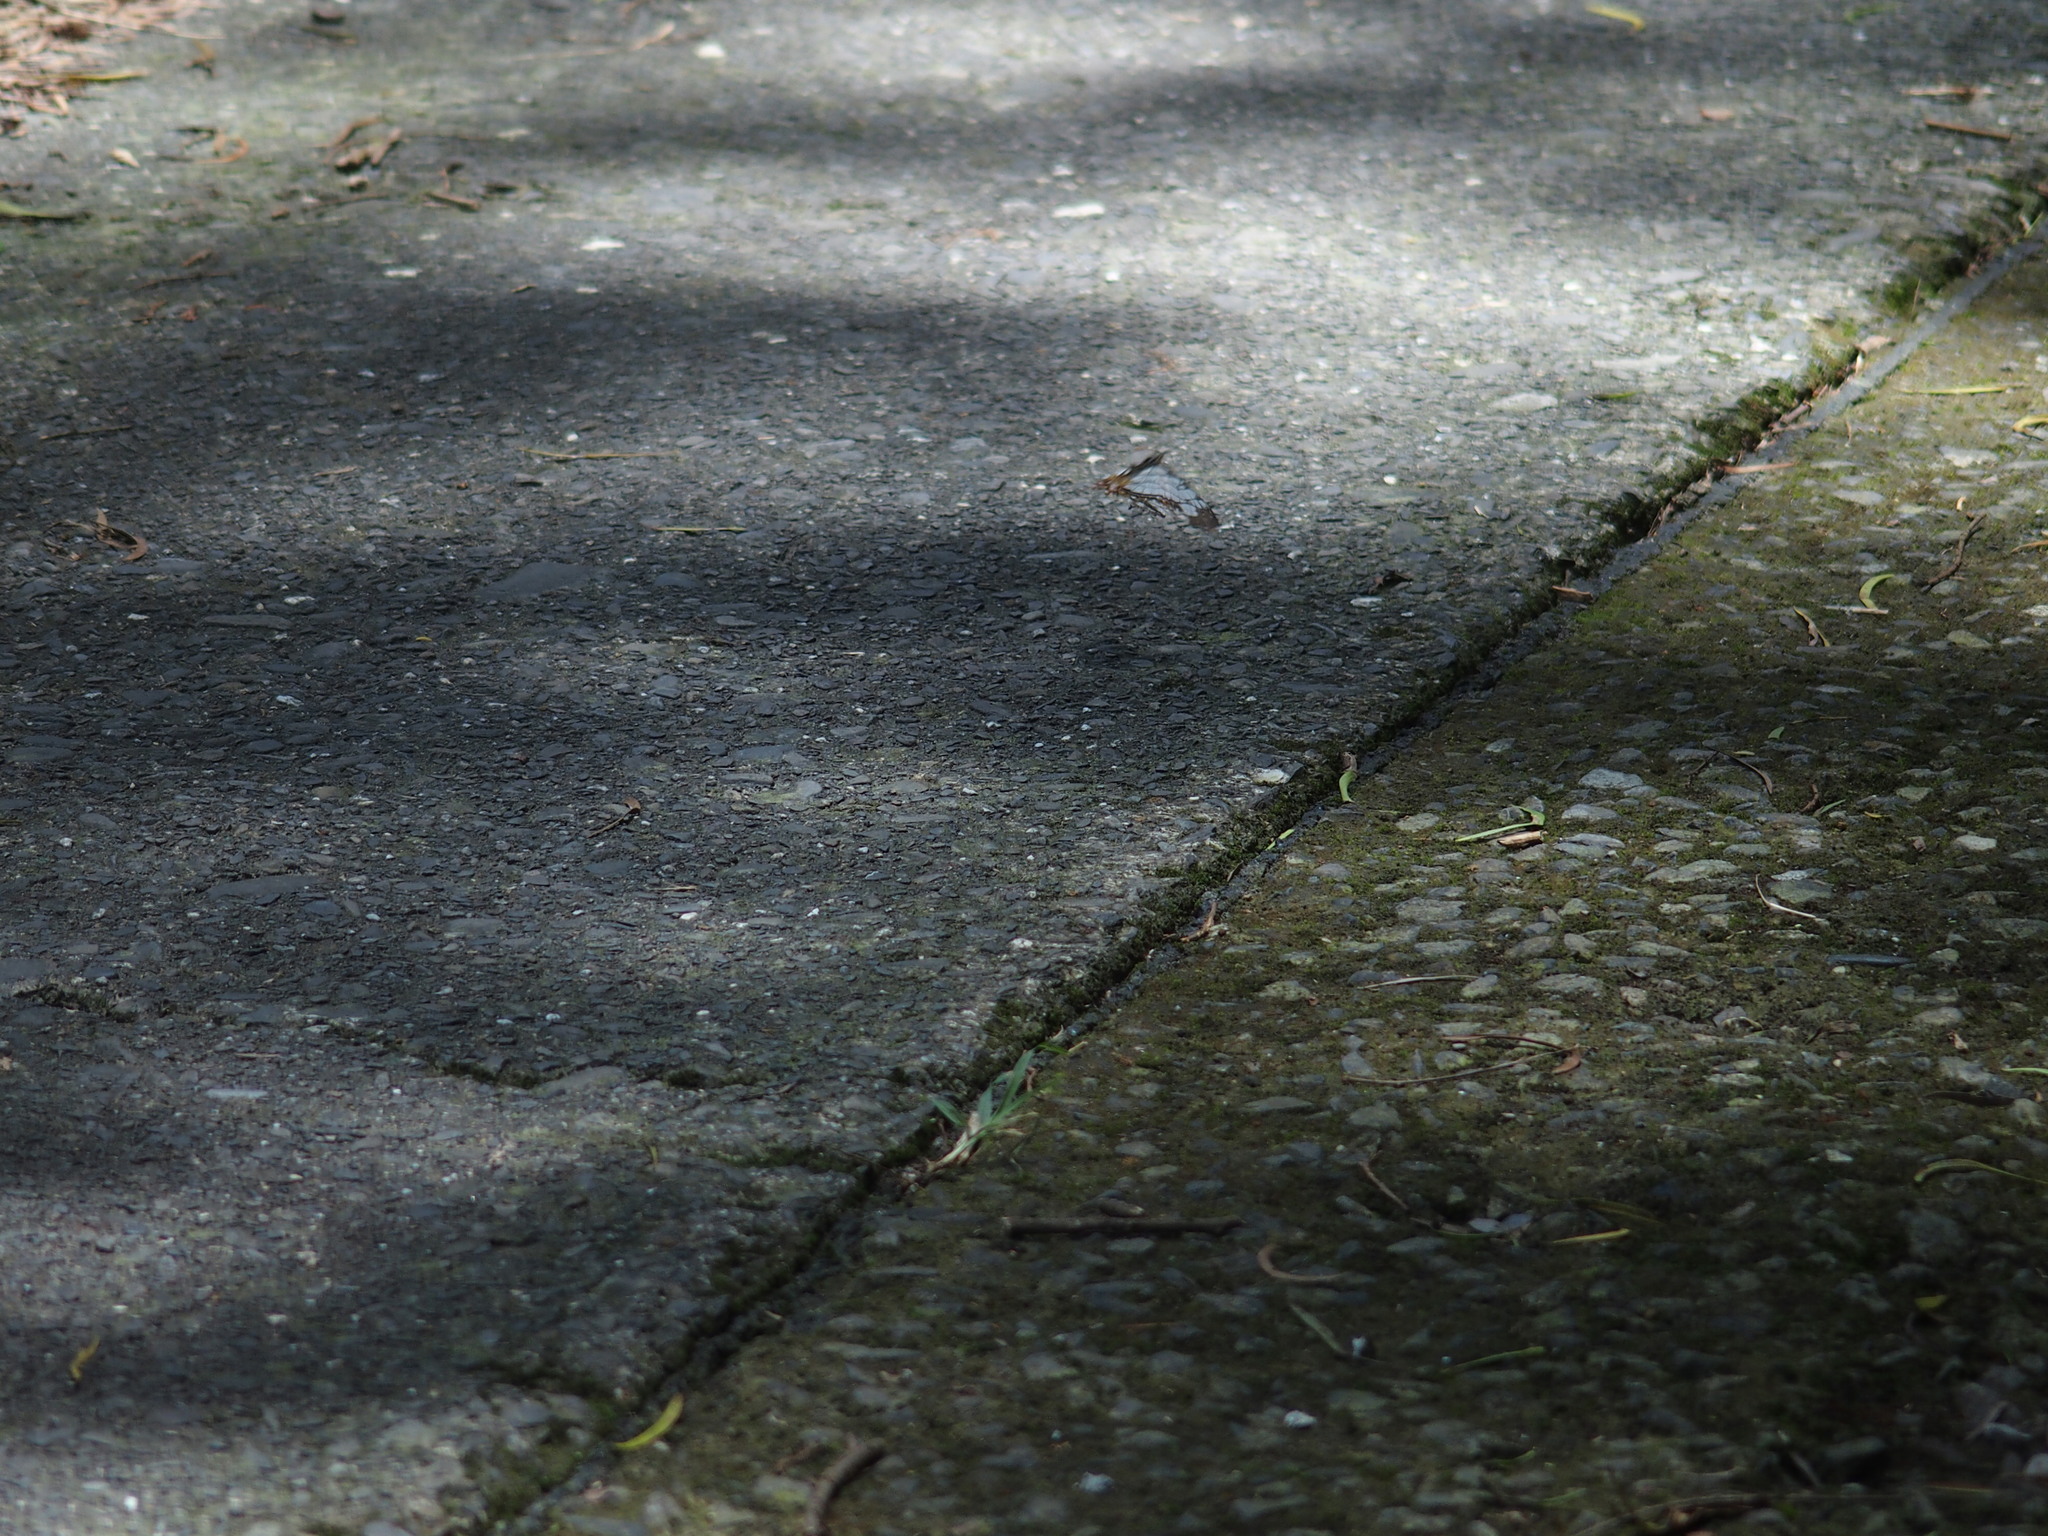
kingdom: Animalia
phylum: Arthropoda
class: Insecta
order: Lepidoptera
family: Nymphalidae
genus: Cyrestis
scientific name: Cyrestis thyodamas
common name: Common mapwing
